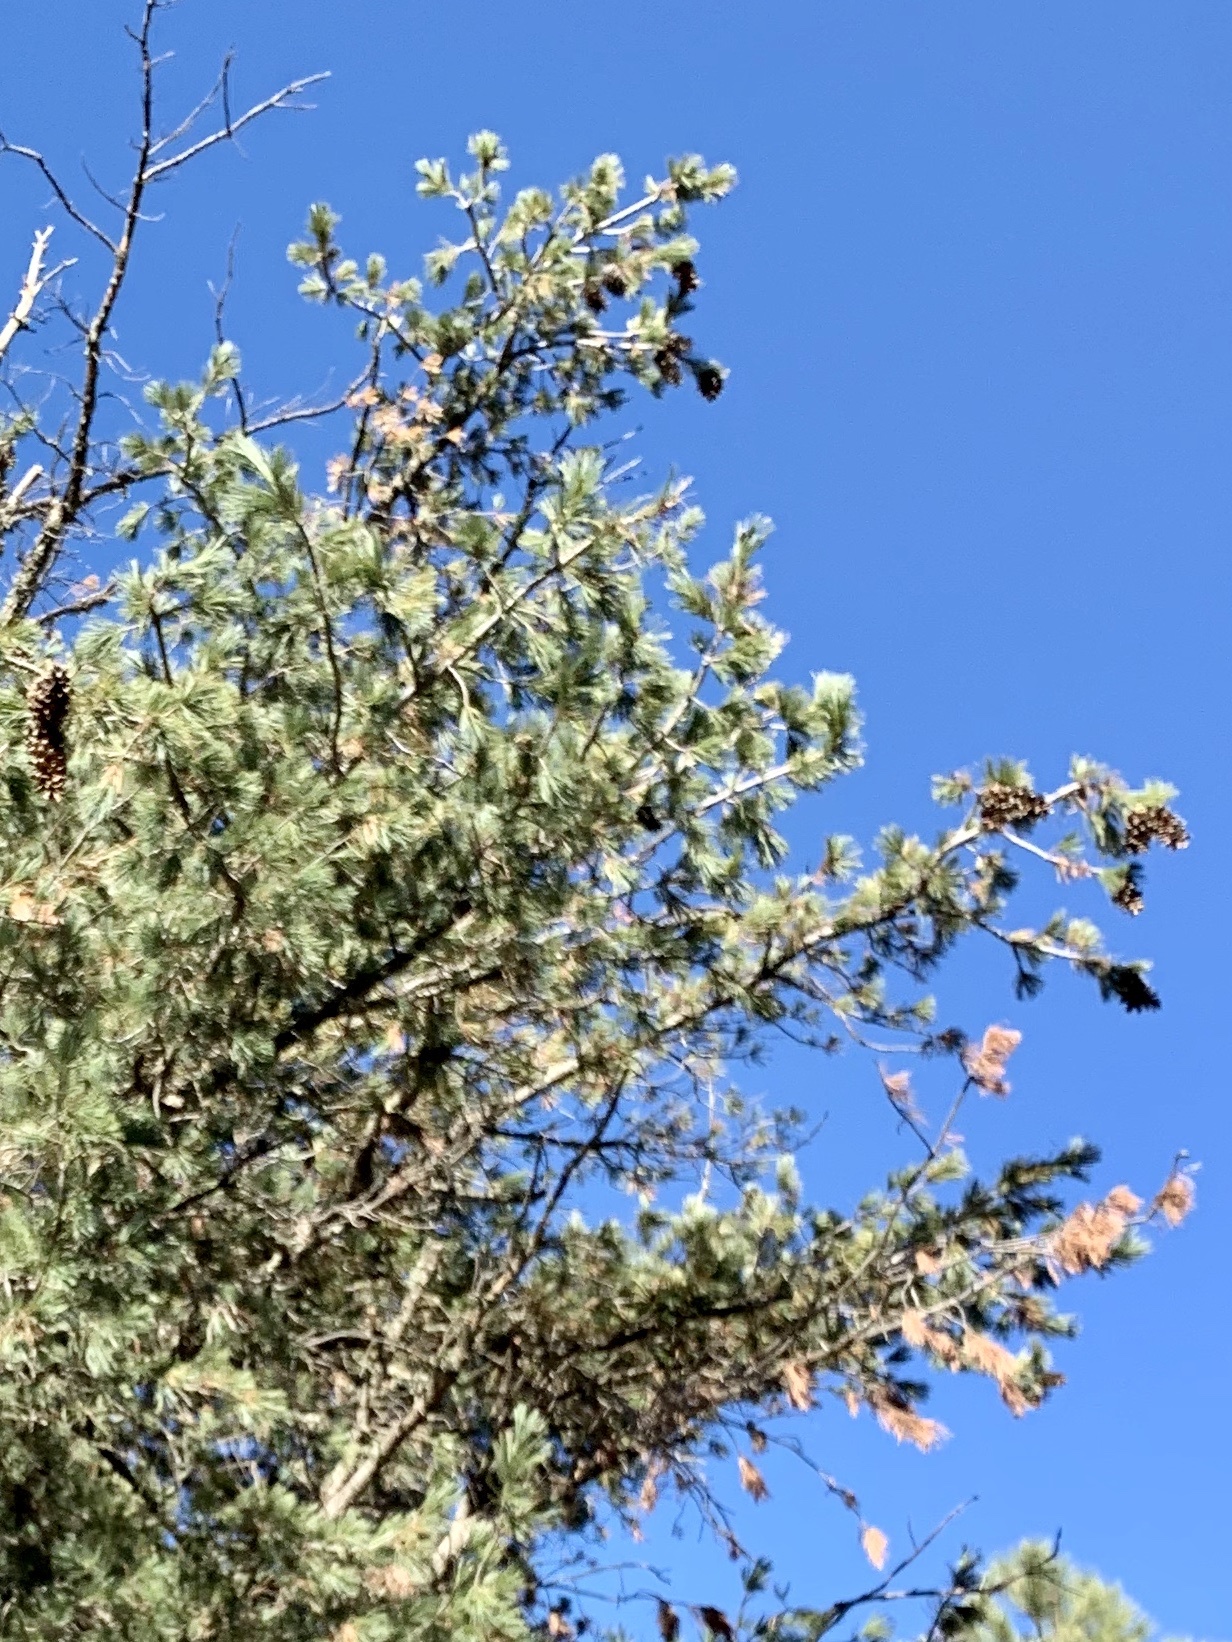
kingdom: Plantae
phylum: Tracheophyta
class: Pinopsida
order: Pinales
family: Pinaceae
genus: Pinus
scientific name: Pinus strobiformis
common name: Southwestern white pine
